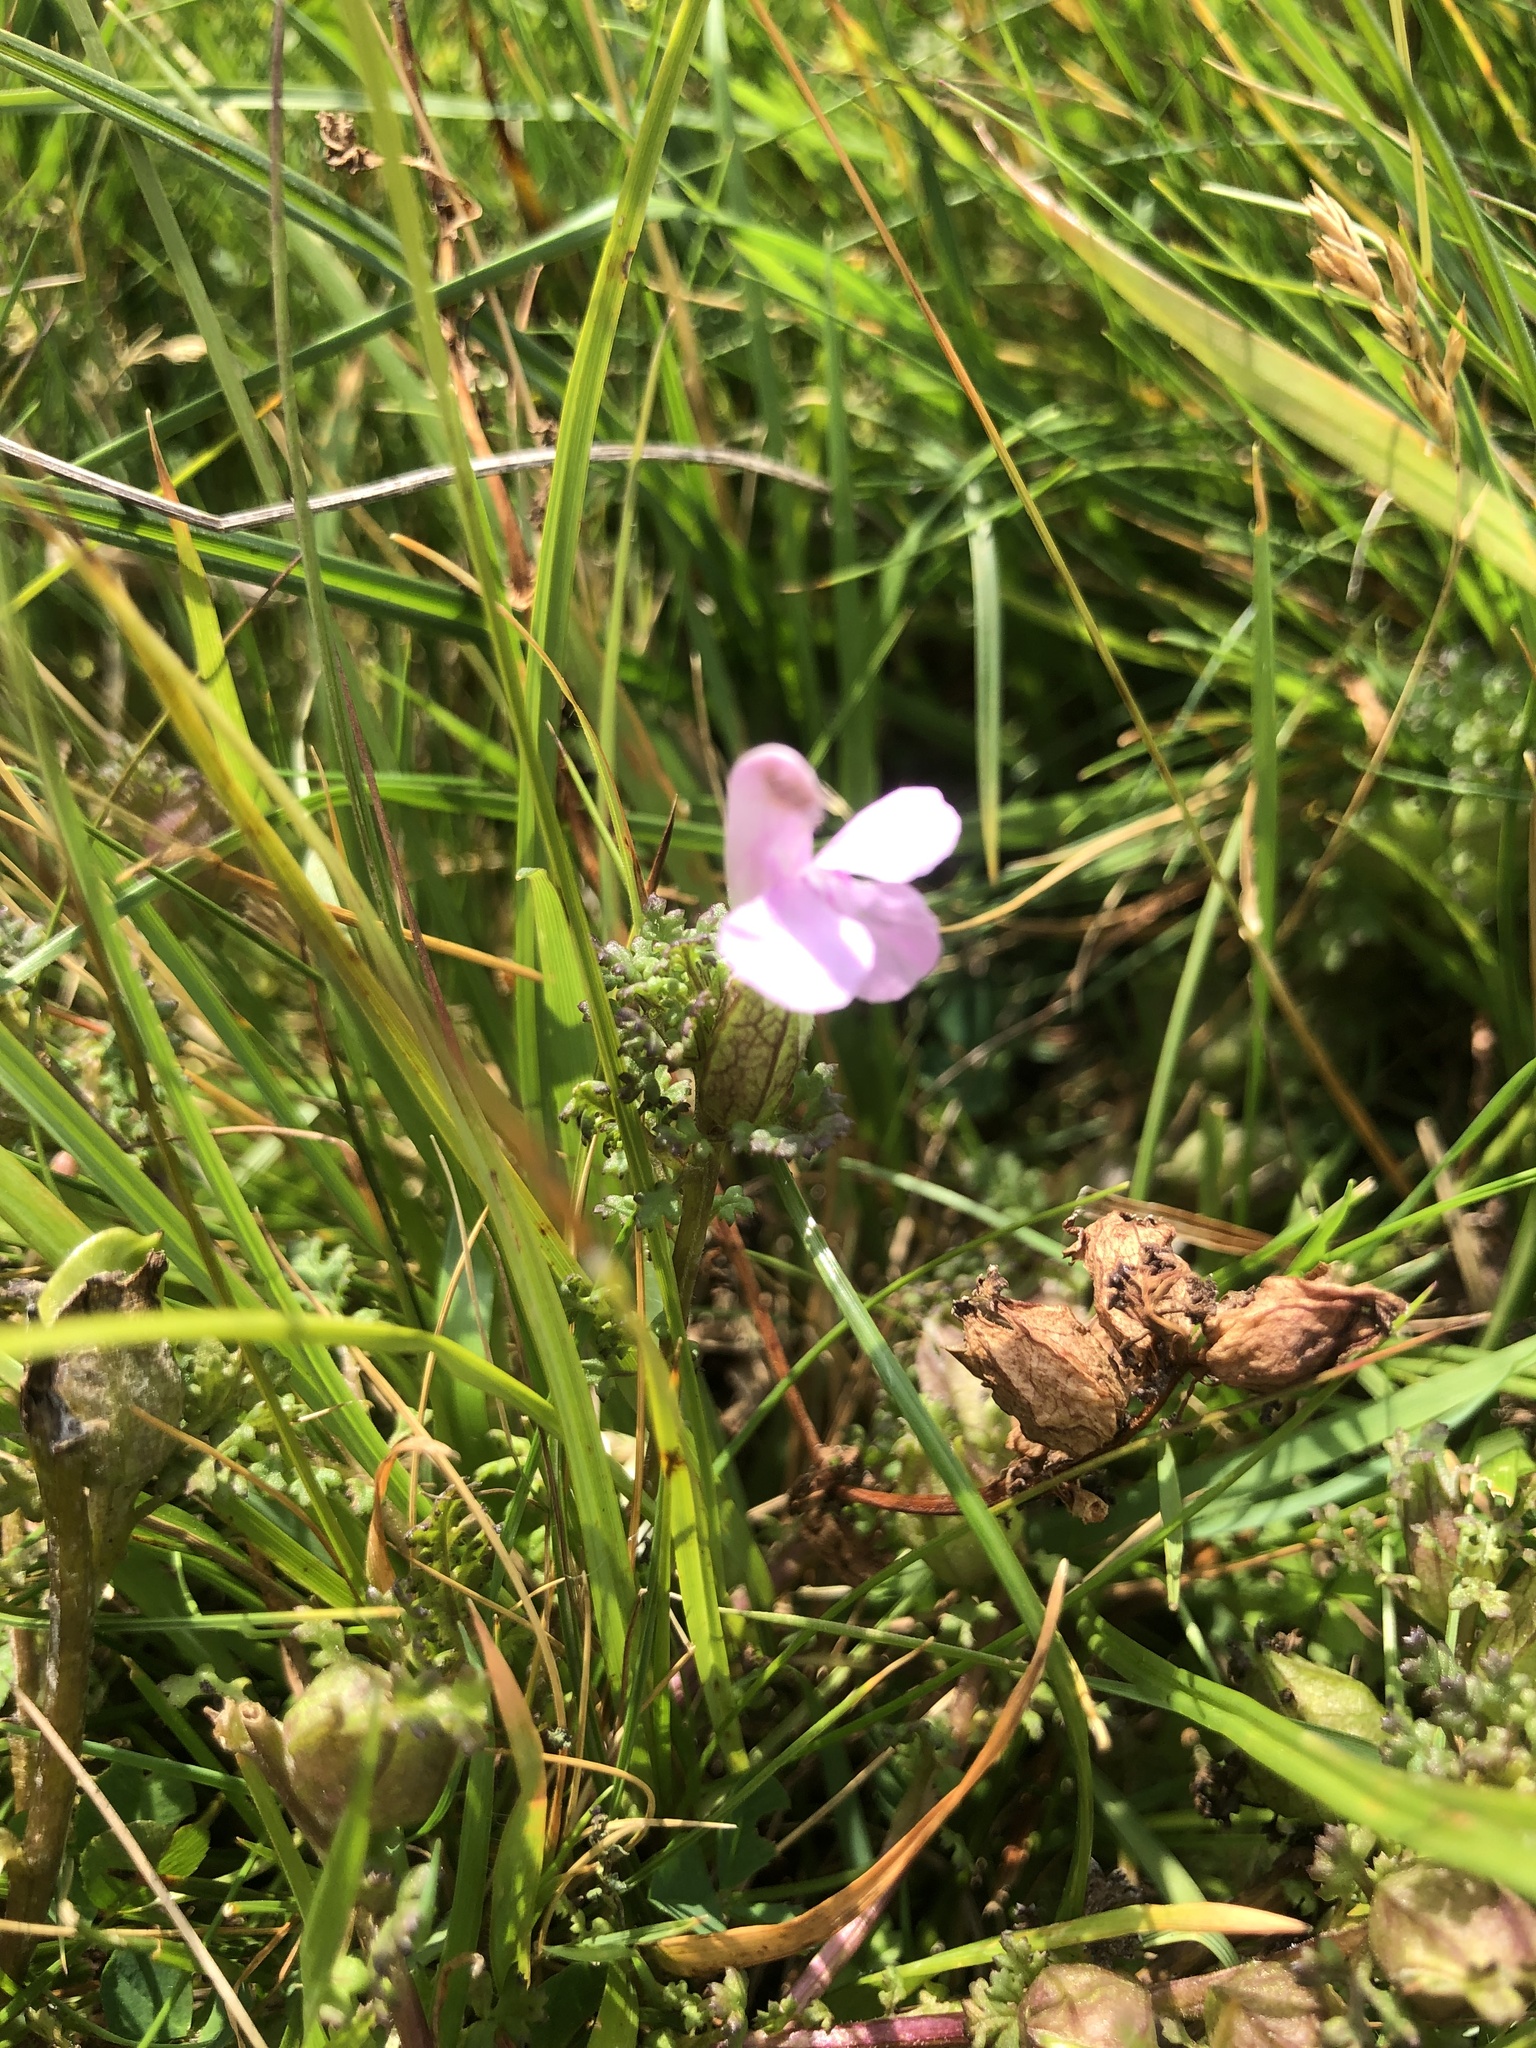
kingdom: Plantae
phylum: Tracheophyta
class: Magnoliopsida
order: Lamiales
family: Orobanchaceae
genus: Pedicularis
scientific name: Pedicularis sylvatica
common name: Lousewort
